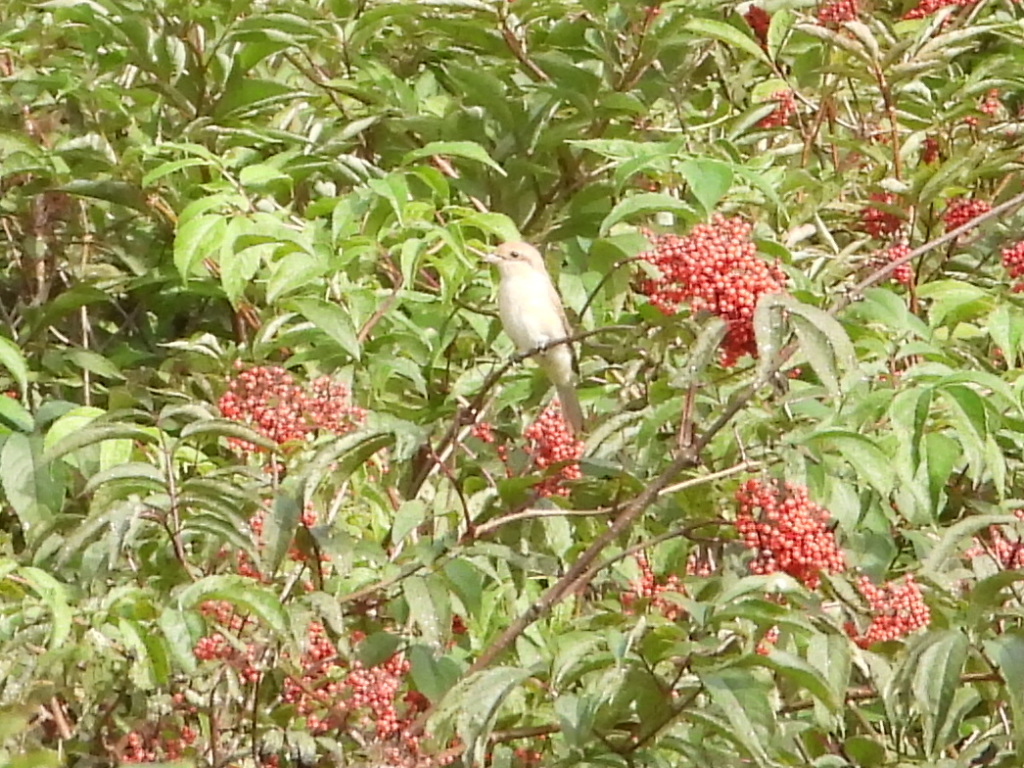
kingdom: Animalia
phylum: Chordata
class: Aves
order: Passeriformes
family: Laniidae
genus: Lanius
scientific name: Lanius collurio
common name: Red-backed shrike
